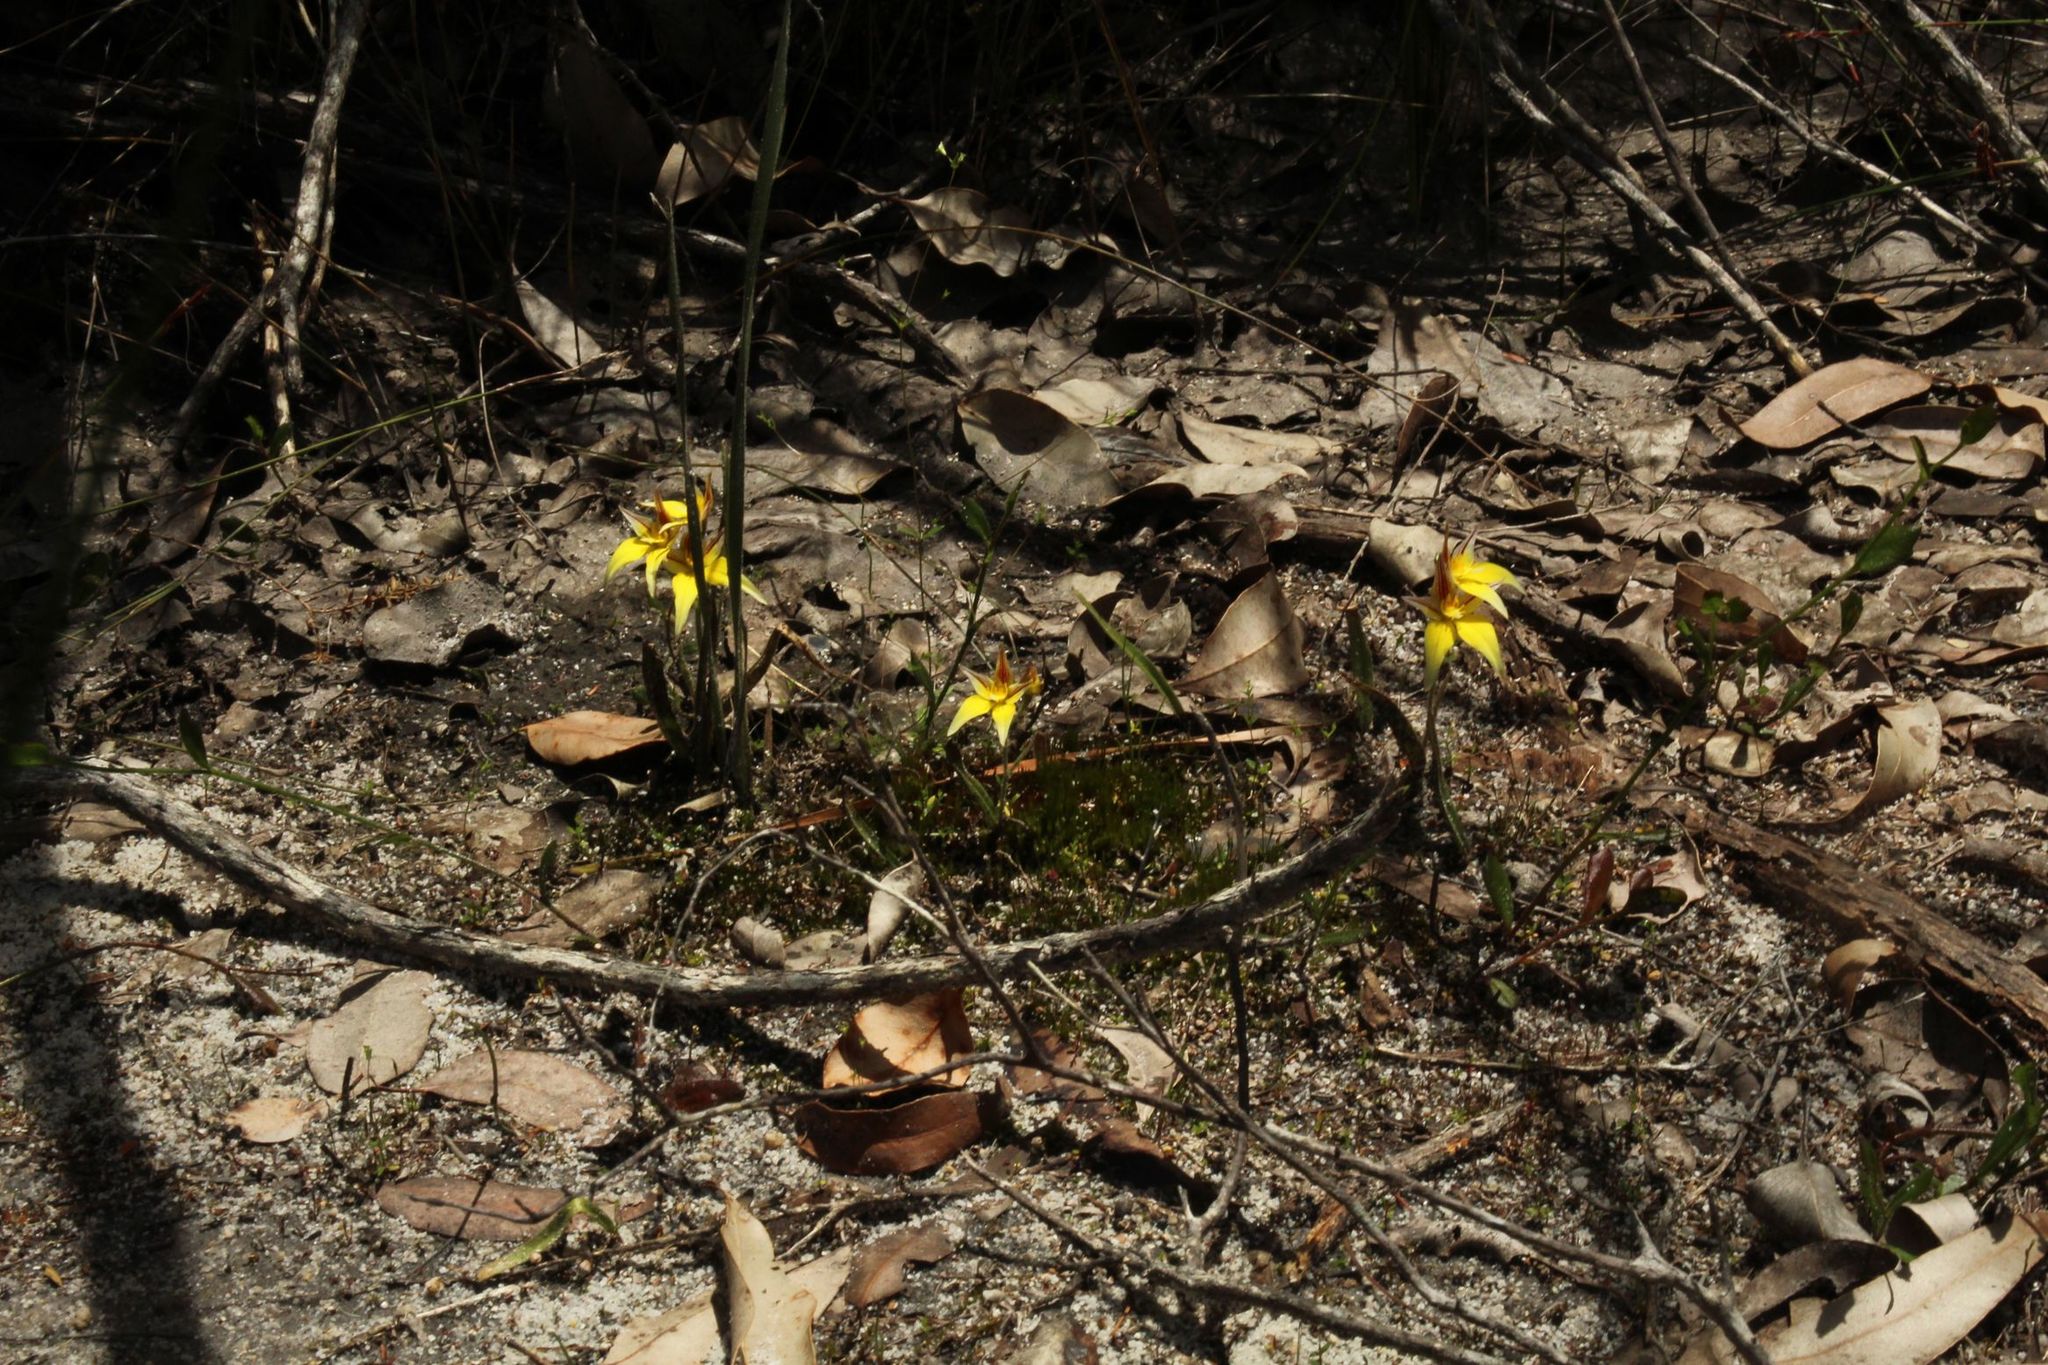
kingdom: Plantae
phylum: Tracheophyta
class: Liliopsida
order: Asparagales
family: Orchidaceae
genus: Caladenia
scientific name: Caladenia flava
